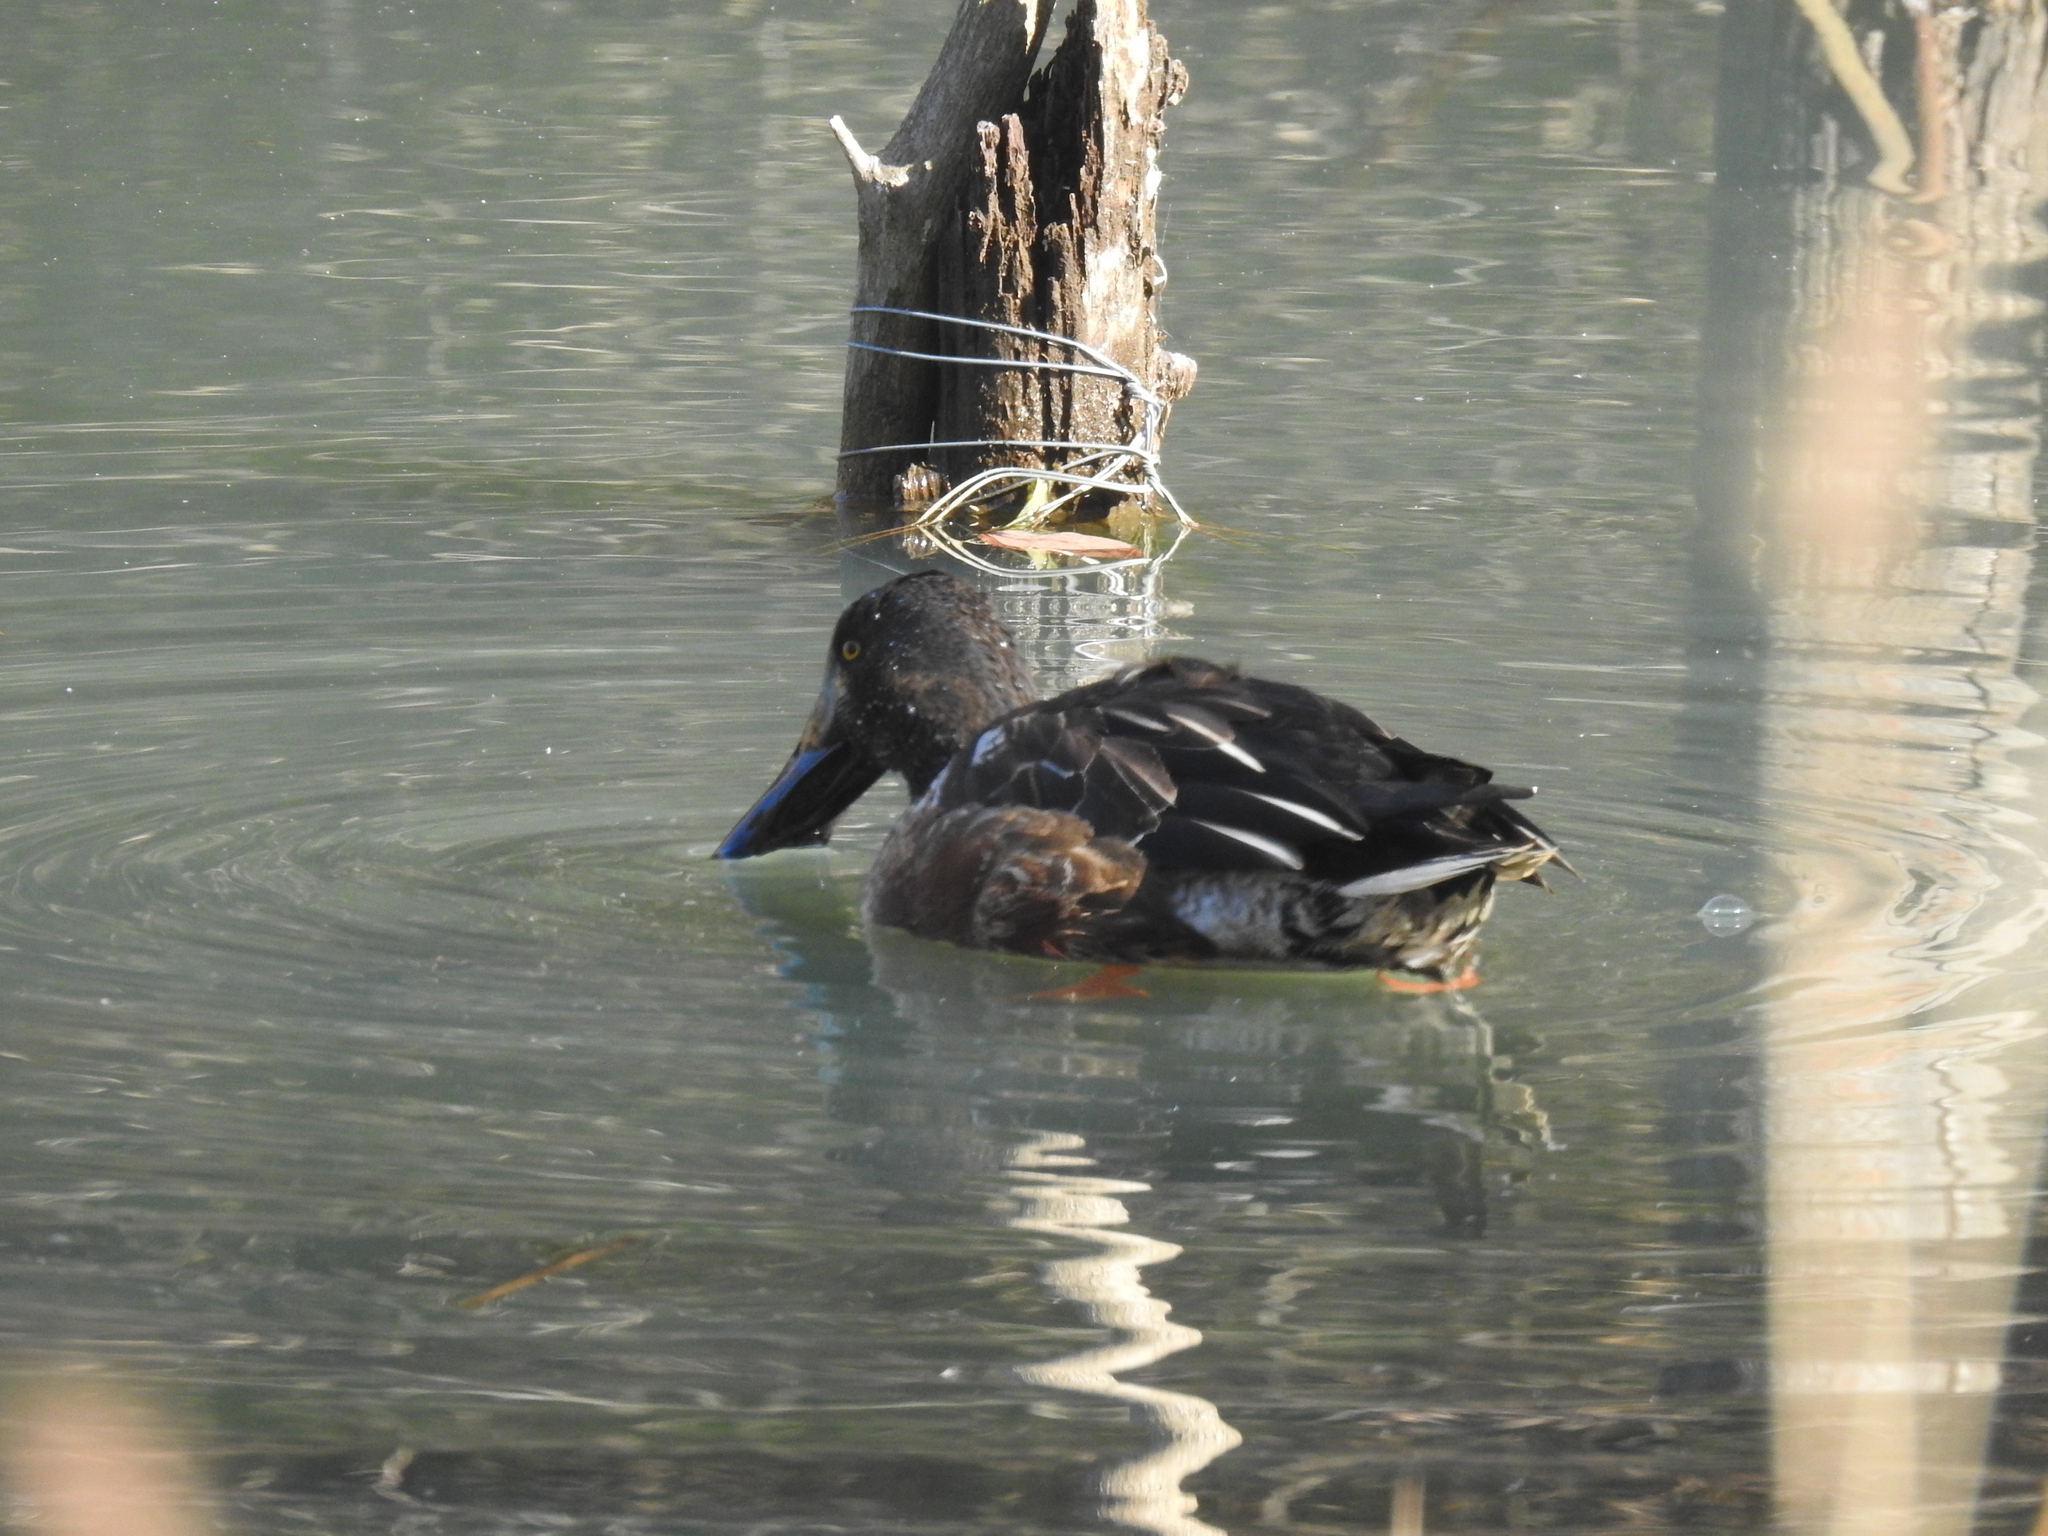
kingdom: Animalia
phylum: Chordata
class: Aves
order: Anseriformes
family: Anatidae
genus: Spatula
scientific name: Spatula clypeata
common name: Northern shoveler
